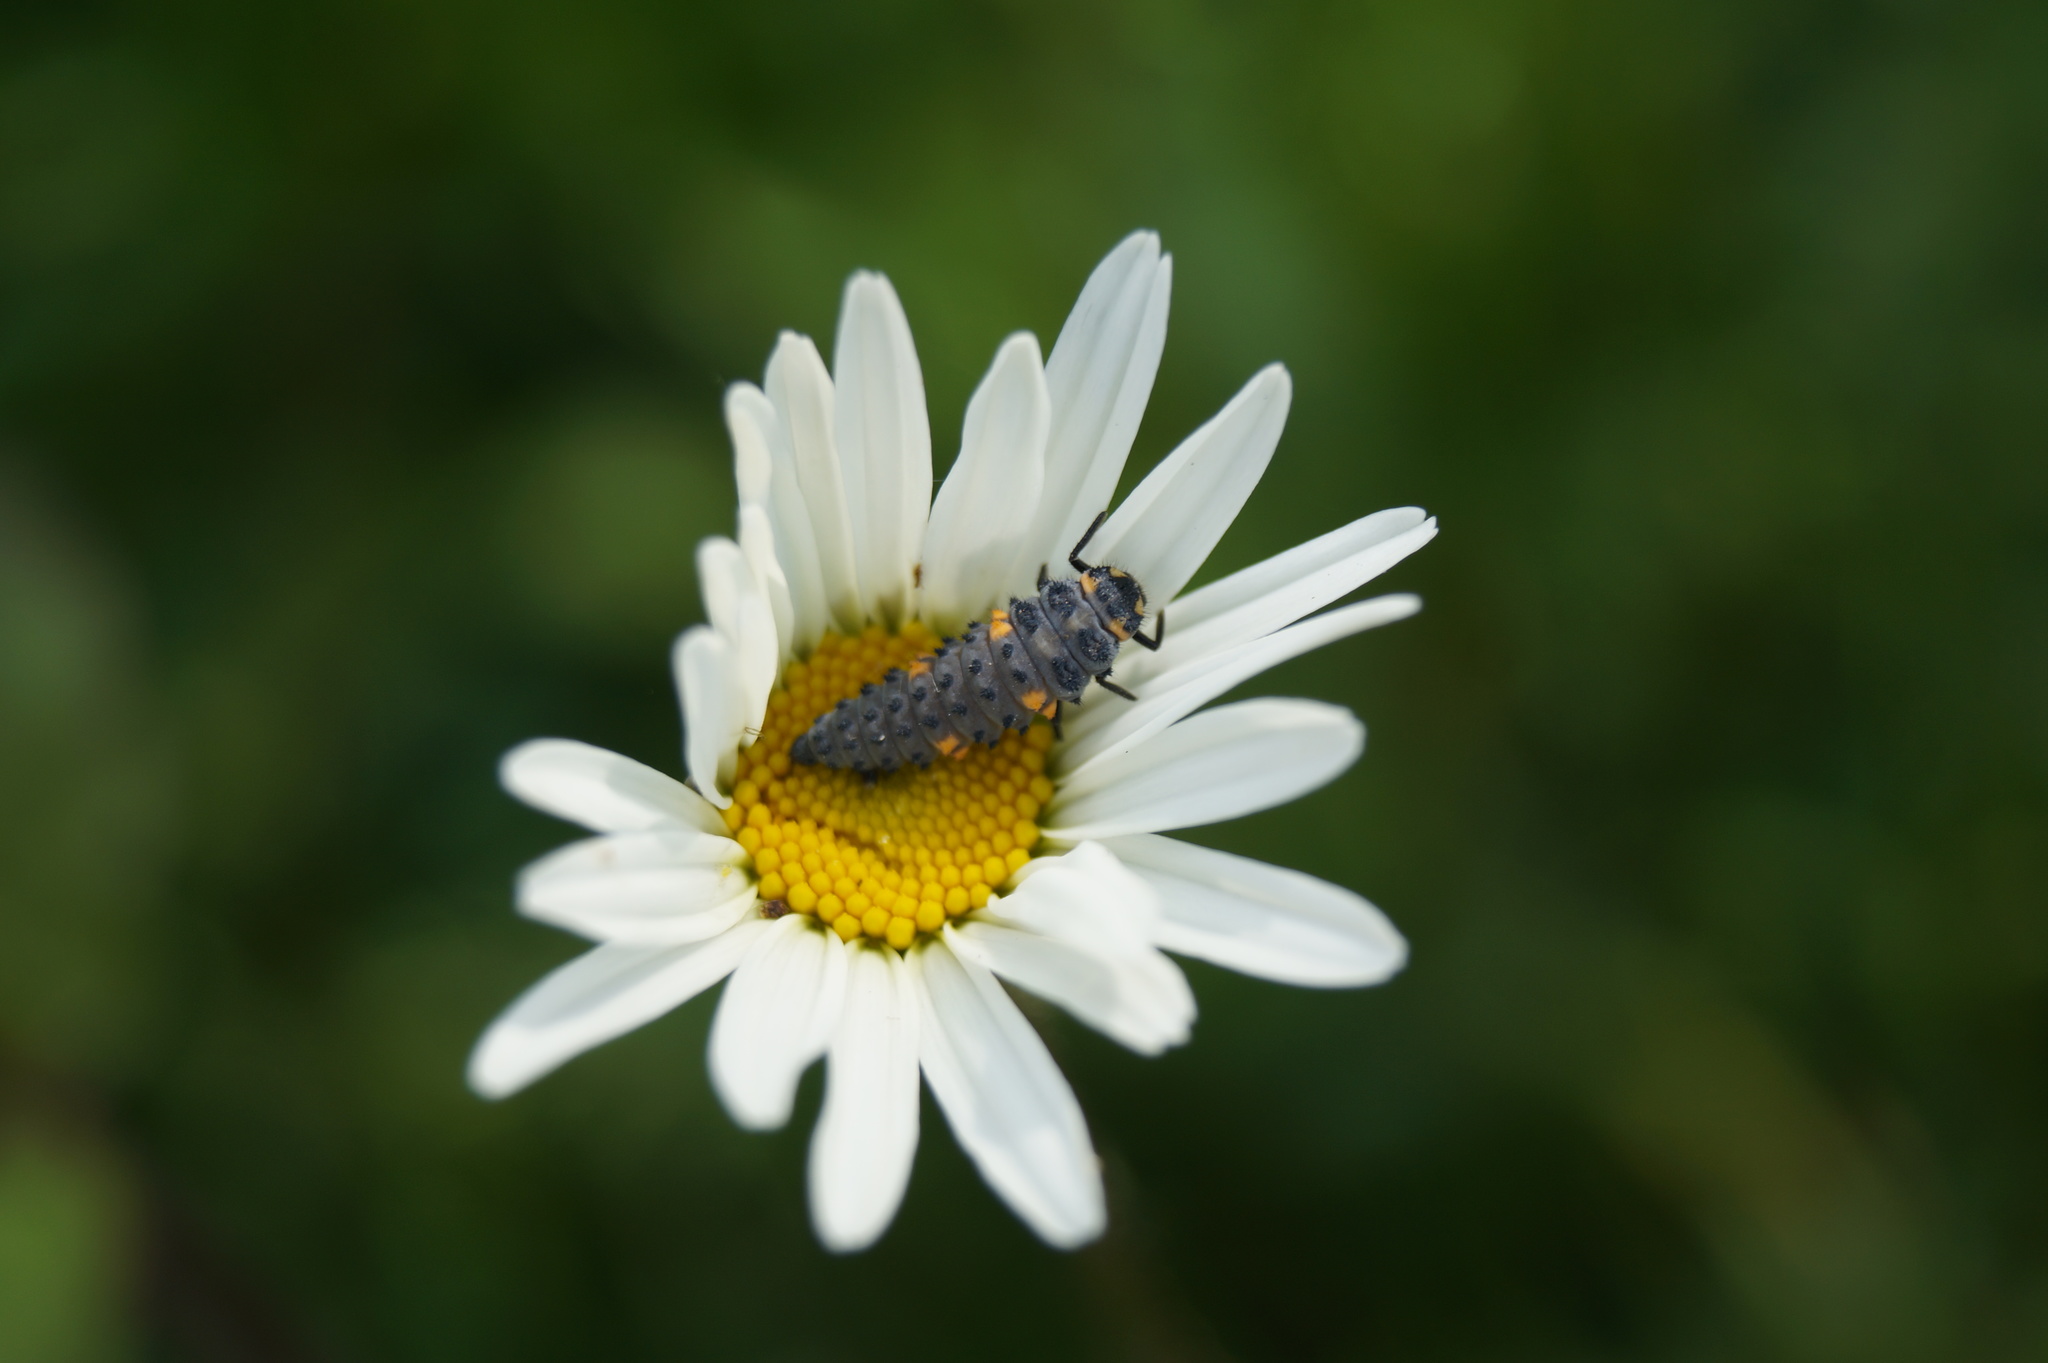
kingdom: Animalia
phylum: Arthropoda
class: Insecta
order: Coleoptera
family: Coccinellidae
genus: Coccinella
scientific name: Coccinella septempunctata
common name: Sevenspotted lady beetle
